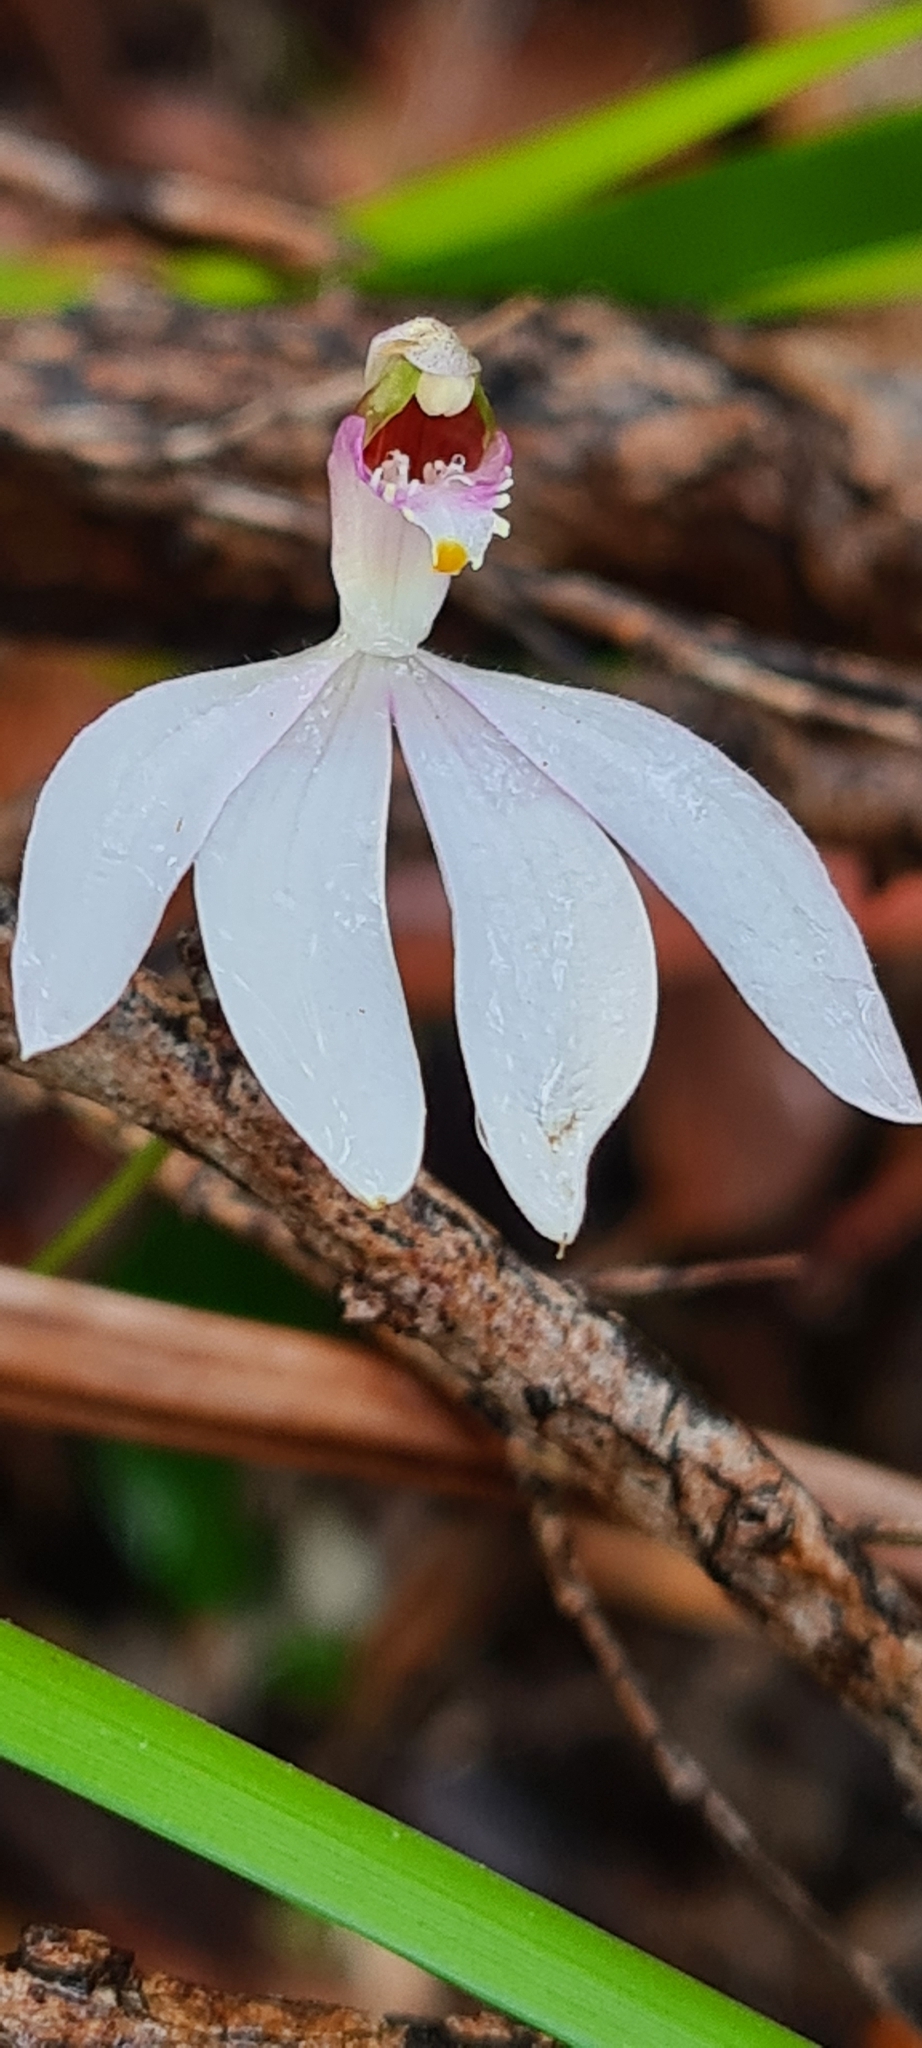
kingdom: Plantae
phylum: Tracheophyta
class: Liliopsida
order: Asparagales
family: Orchidaceae
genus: Caladenia
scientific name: Caladenia picta
